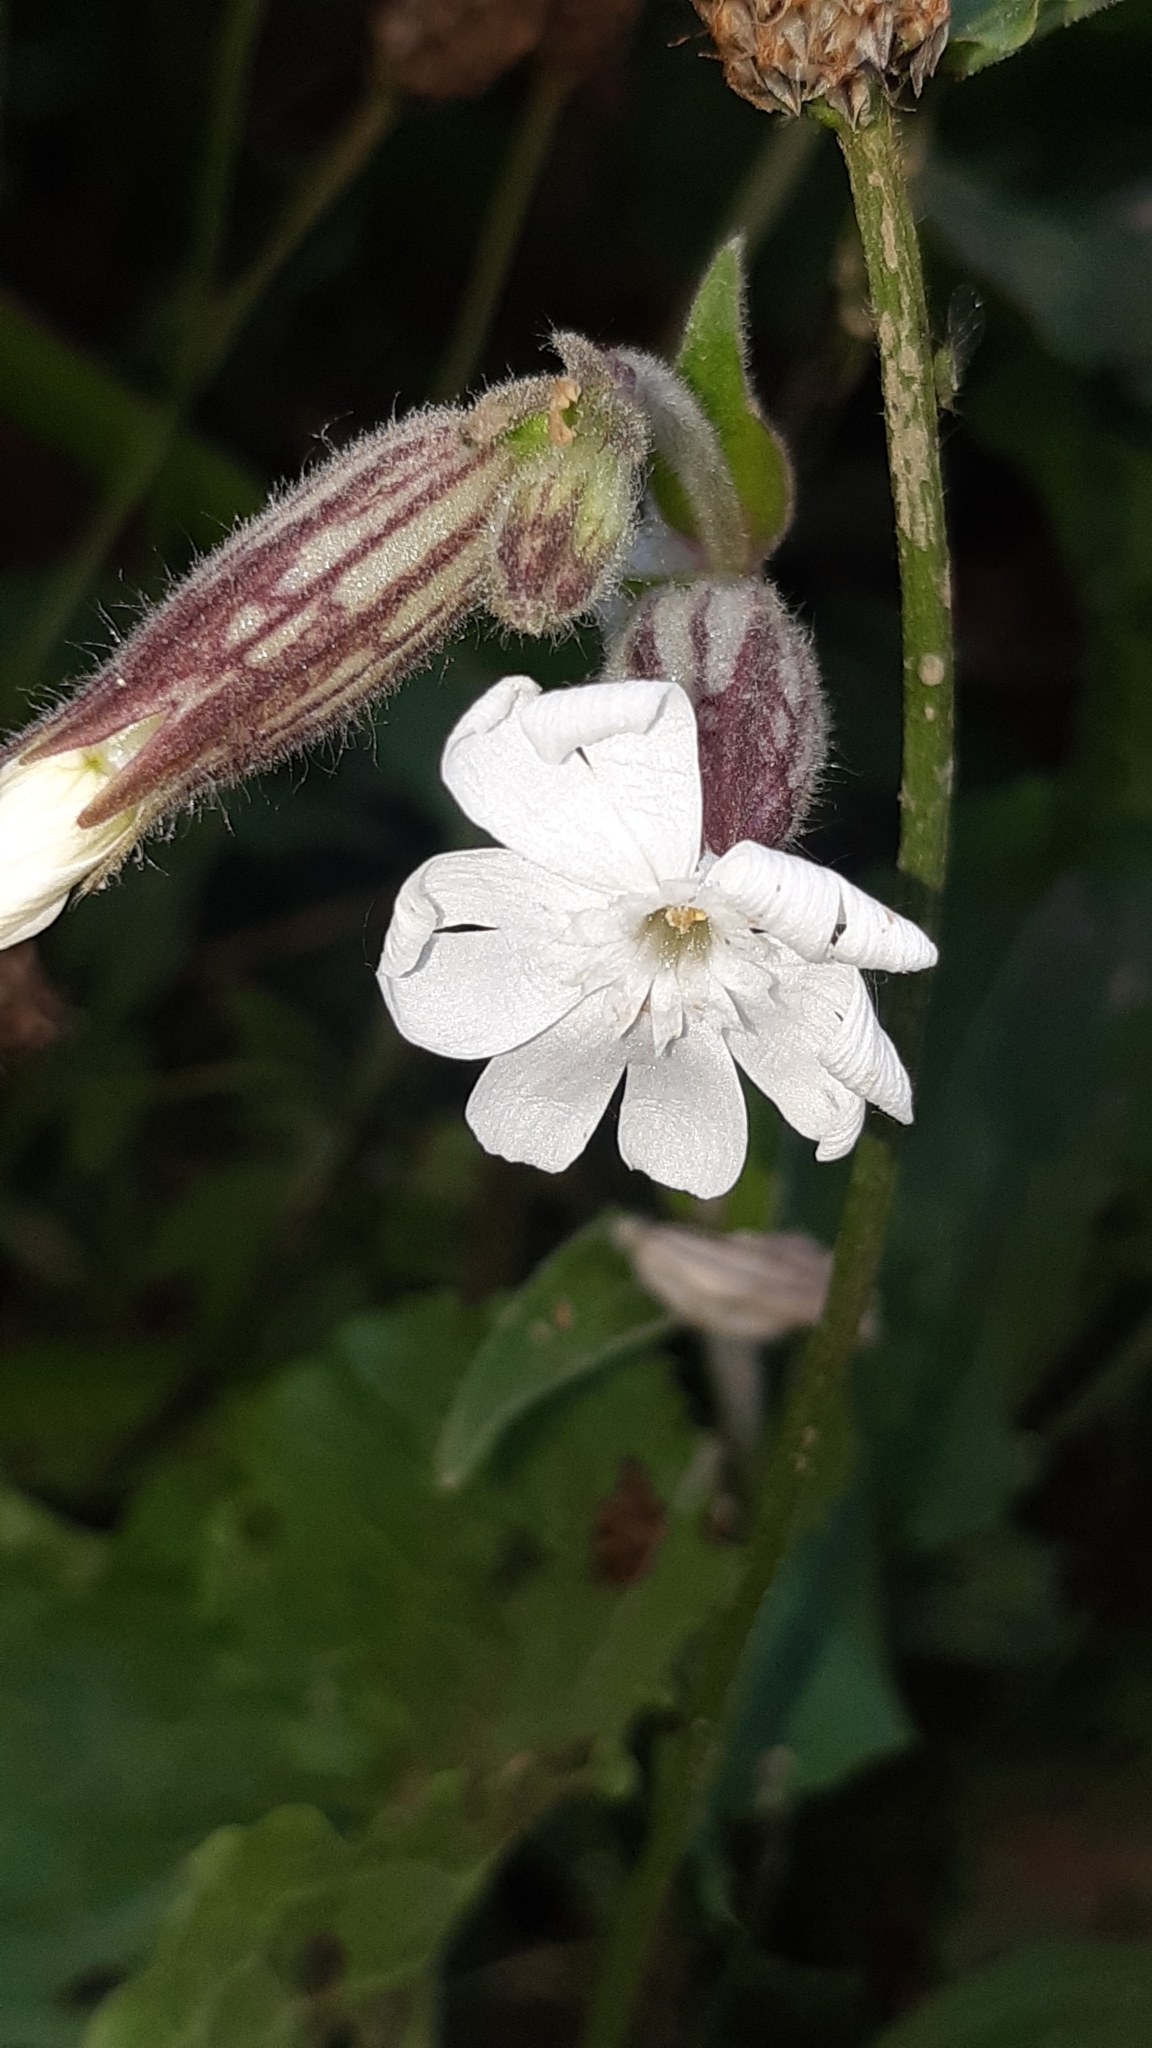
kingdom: Plantae
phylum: Tracheophyta
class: Magnoliopsida
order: Caryophyllales
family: Caryophyllaceae
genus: Silene
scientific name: Silene latifolia
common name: White campion
